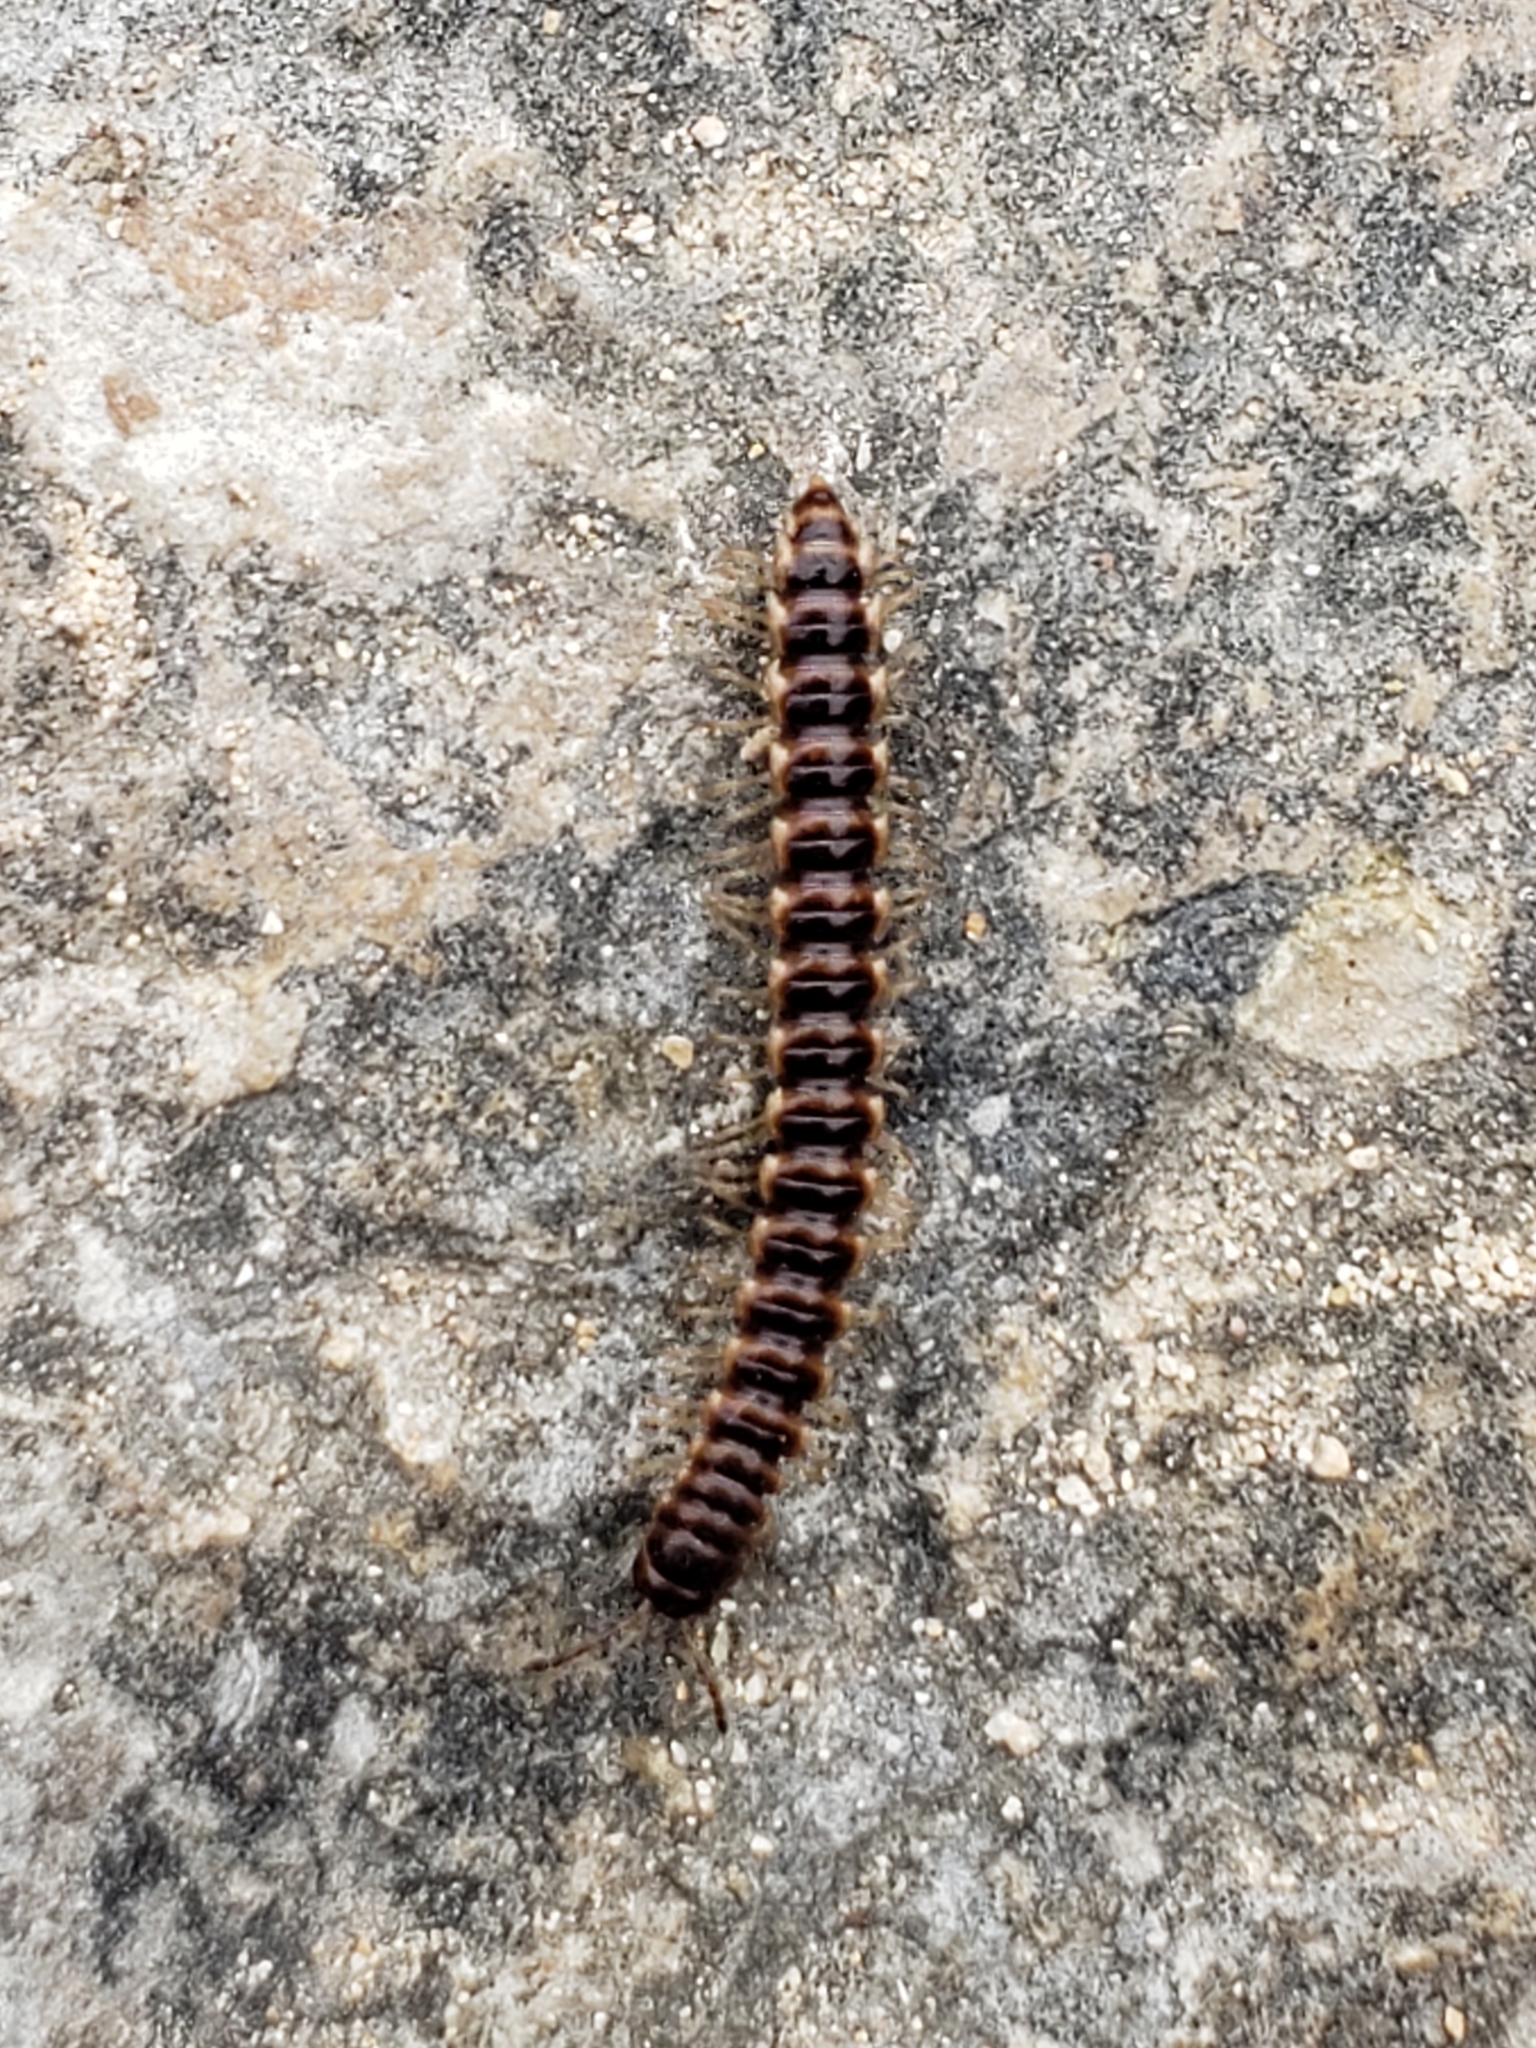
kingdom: Animalia
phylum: Arthropoda
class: Diplopoda
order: Polydesmida
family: Paradoxosomatidae
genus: Oxidus
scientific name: Oxidus gracilis
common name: Greenhouse millipede
